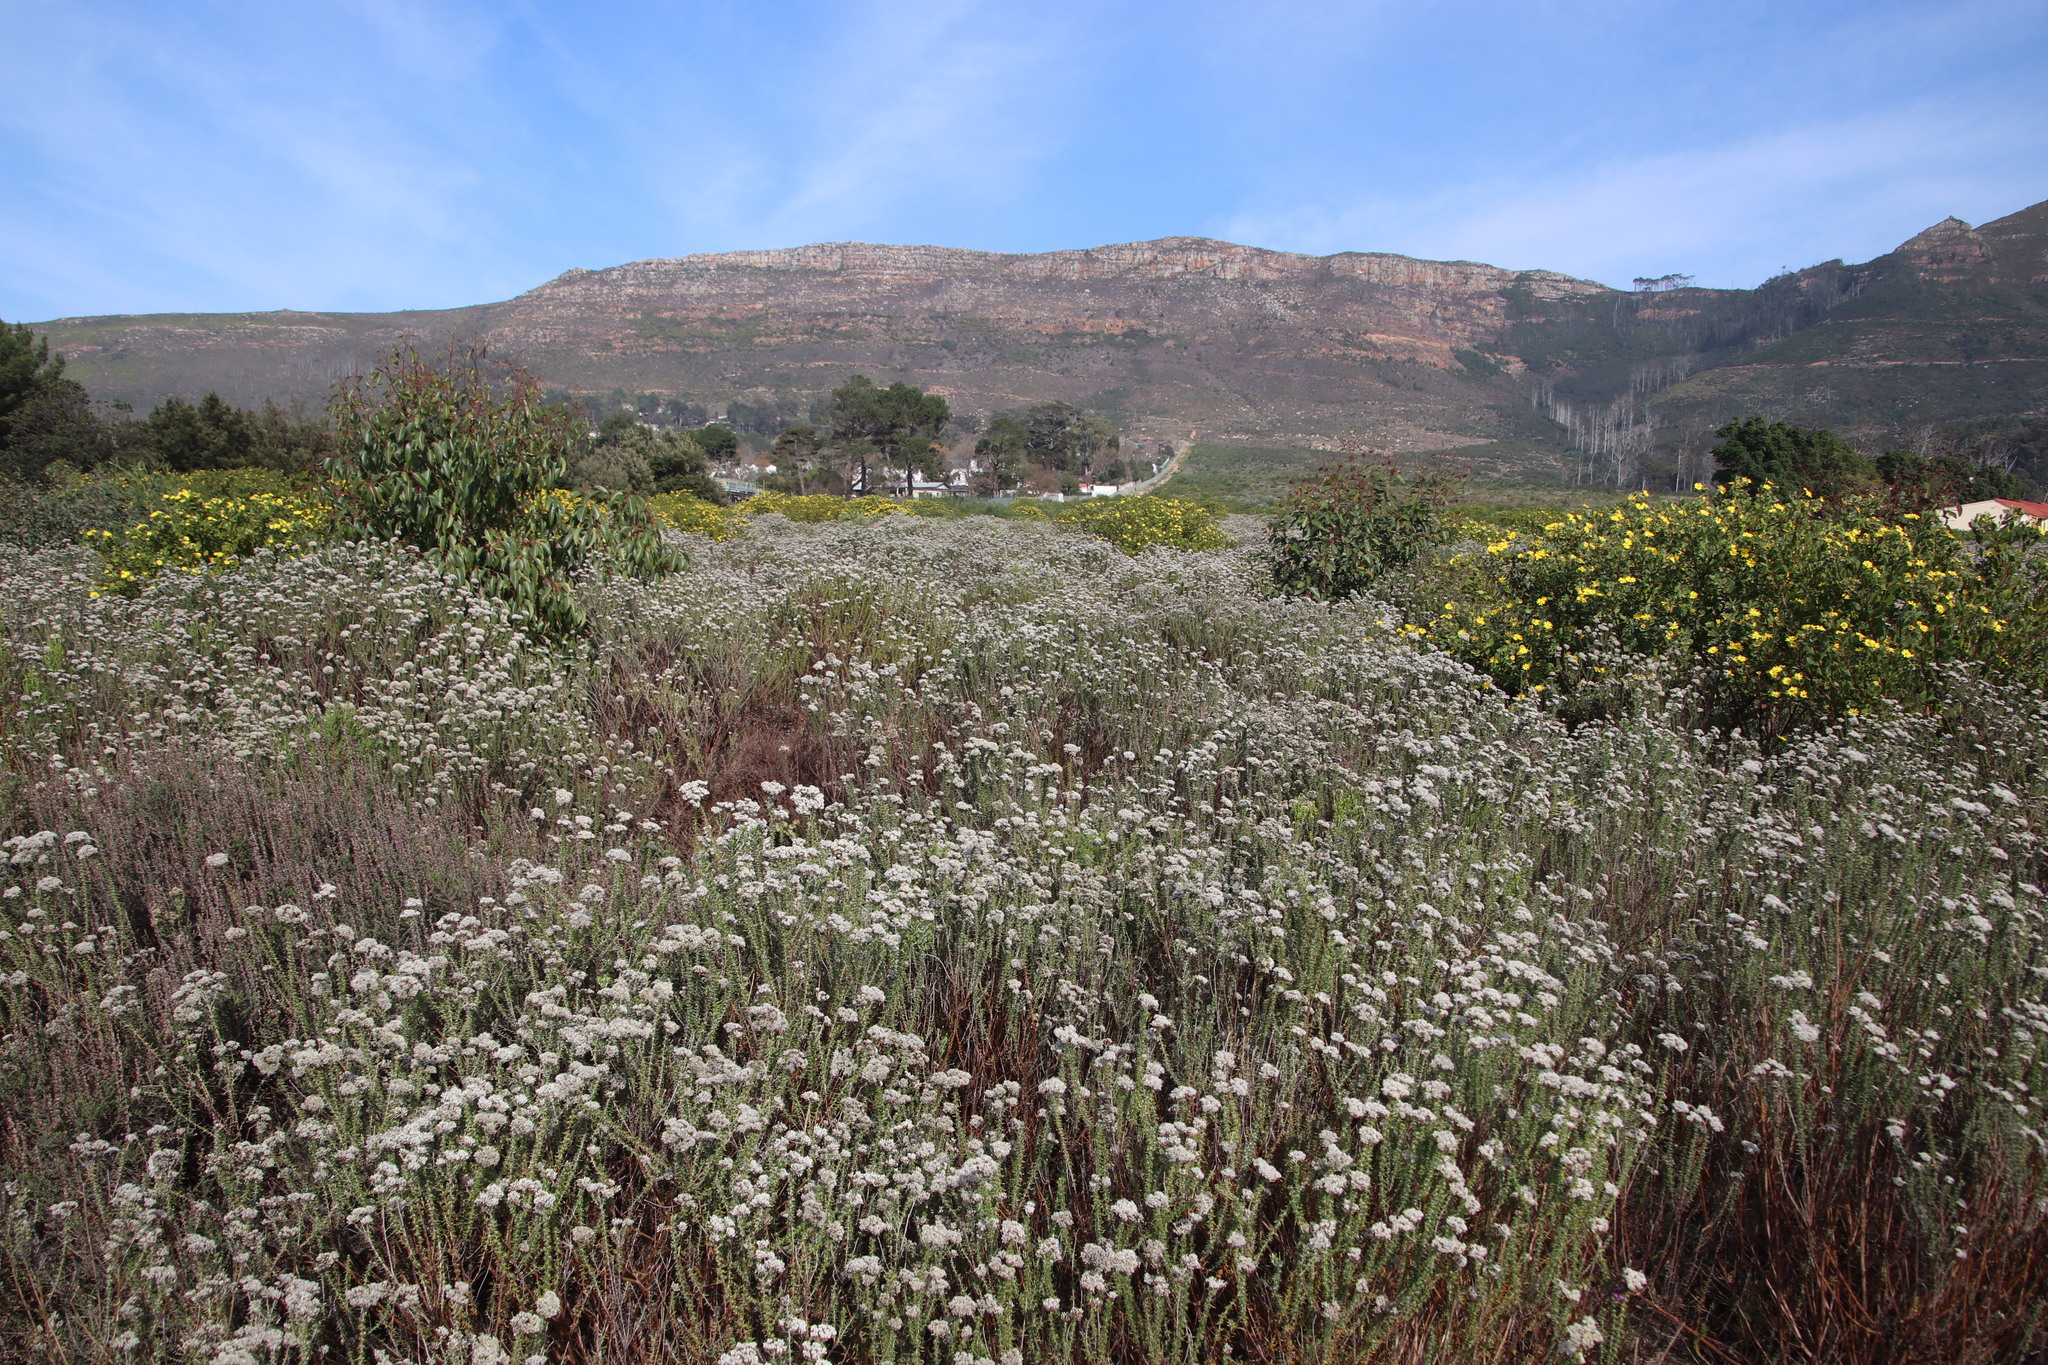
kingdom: Plantae
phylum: Tracheophyta
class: Magnoliopsida
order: Asterales
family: Asteraceae
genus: Metalasia
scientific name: Metalasia densa
